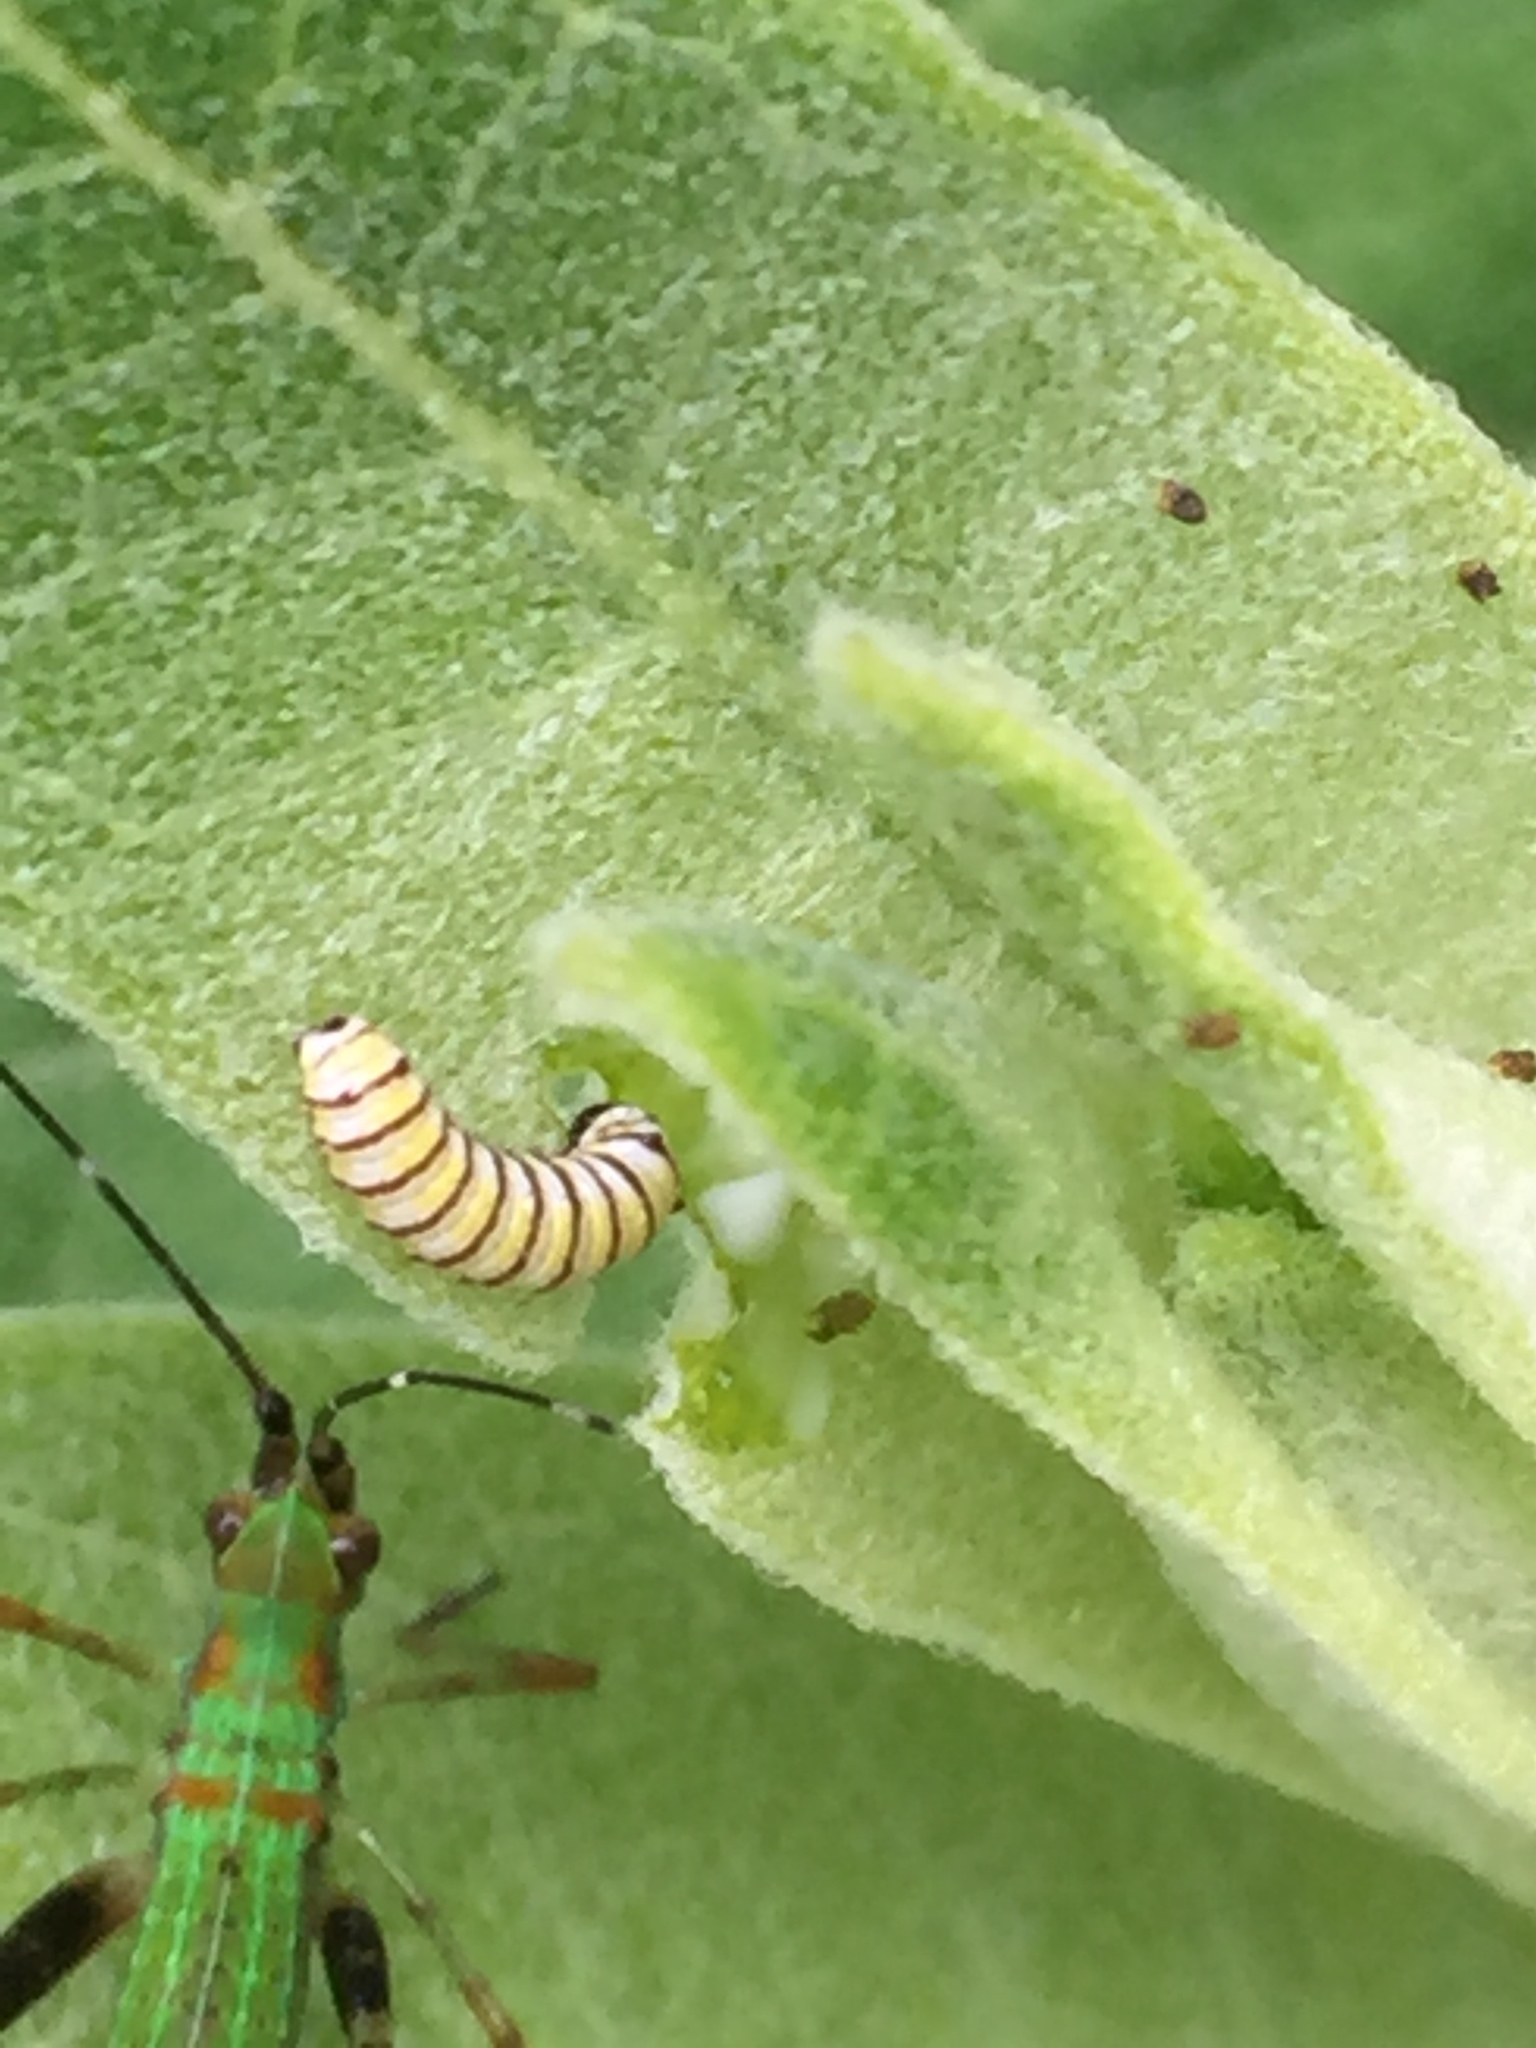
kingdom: Animalia
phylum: Arthropoda
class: Insecta
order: Lepidoptera
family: Nymphalidae
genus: Danaus
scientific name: Danaus plexippus
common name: Monarch
